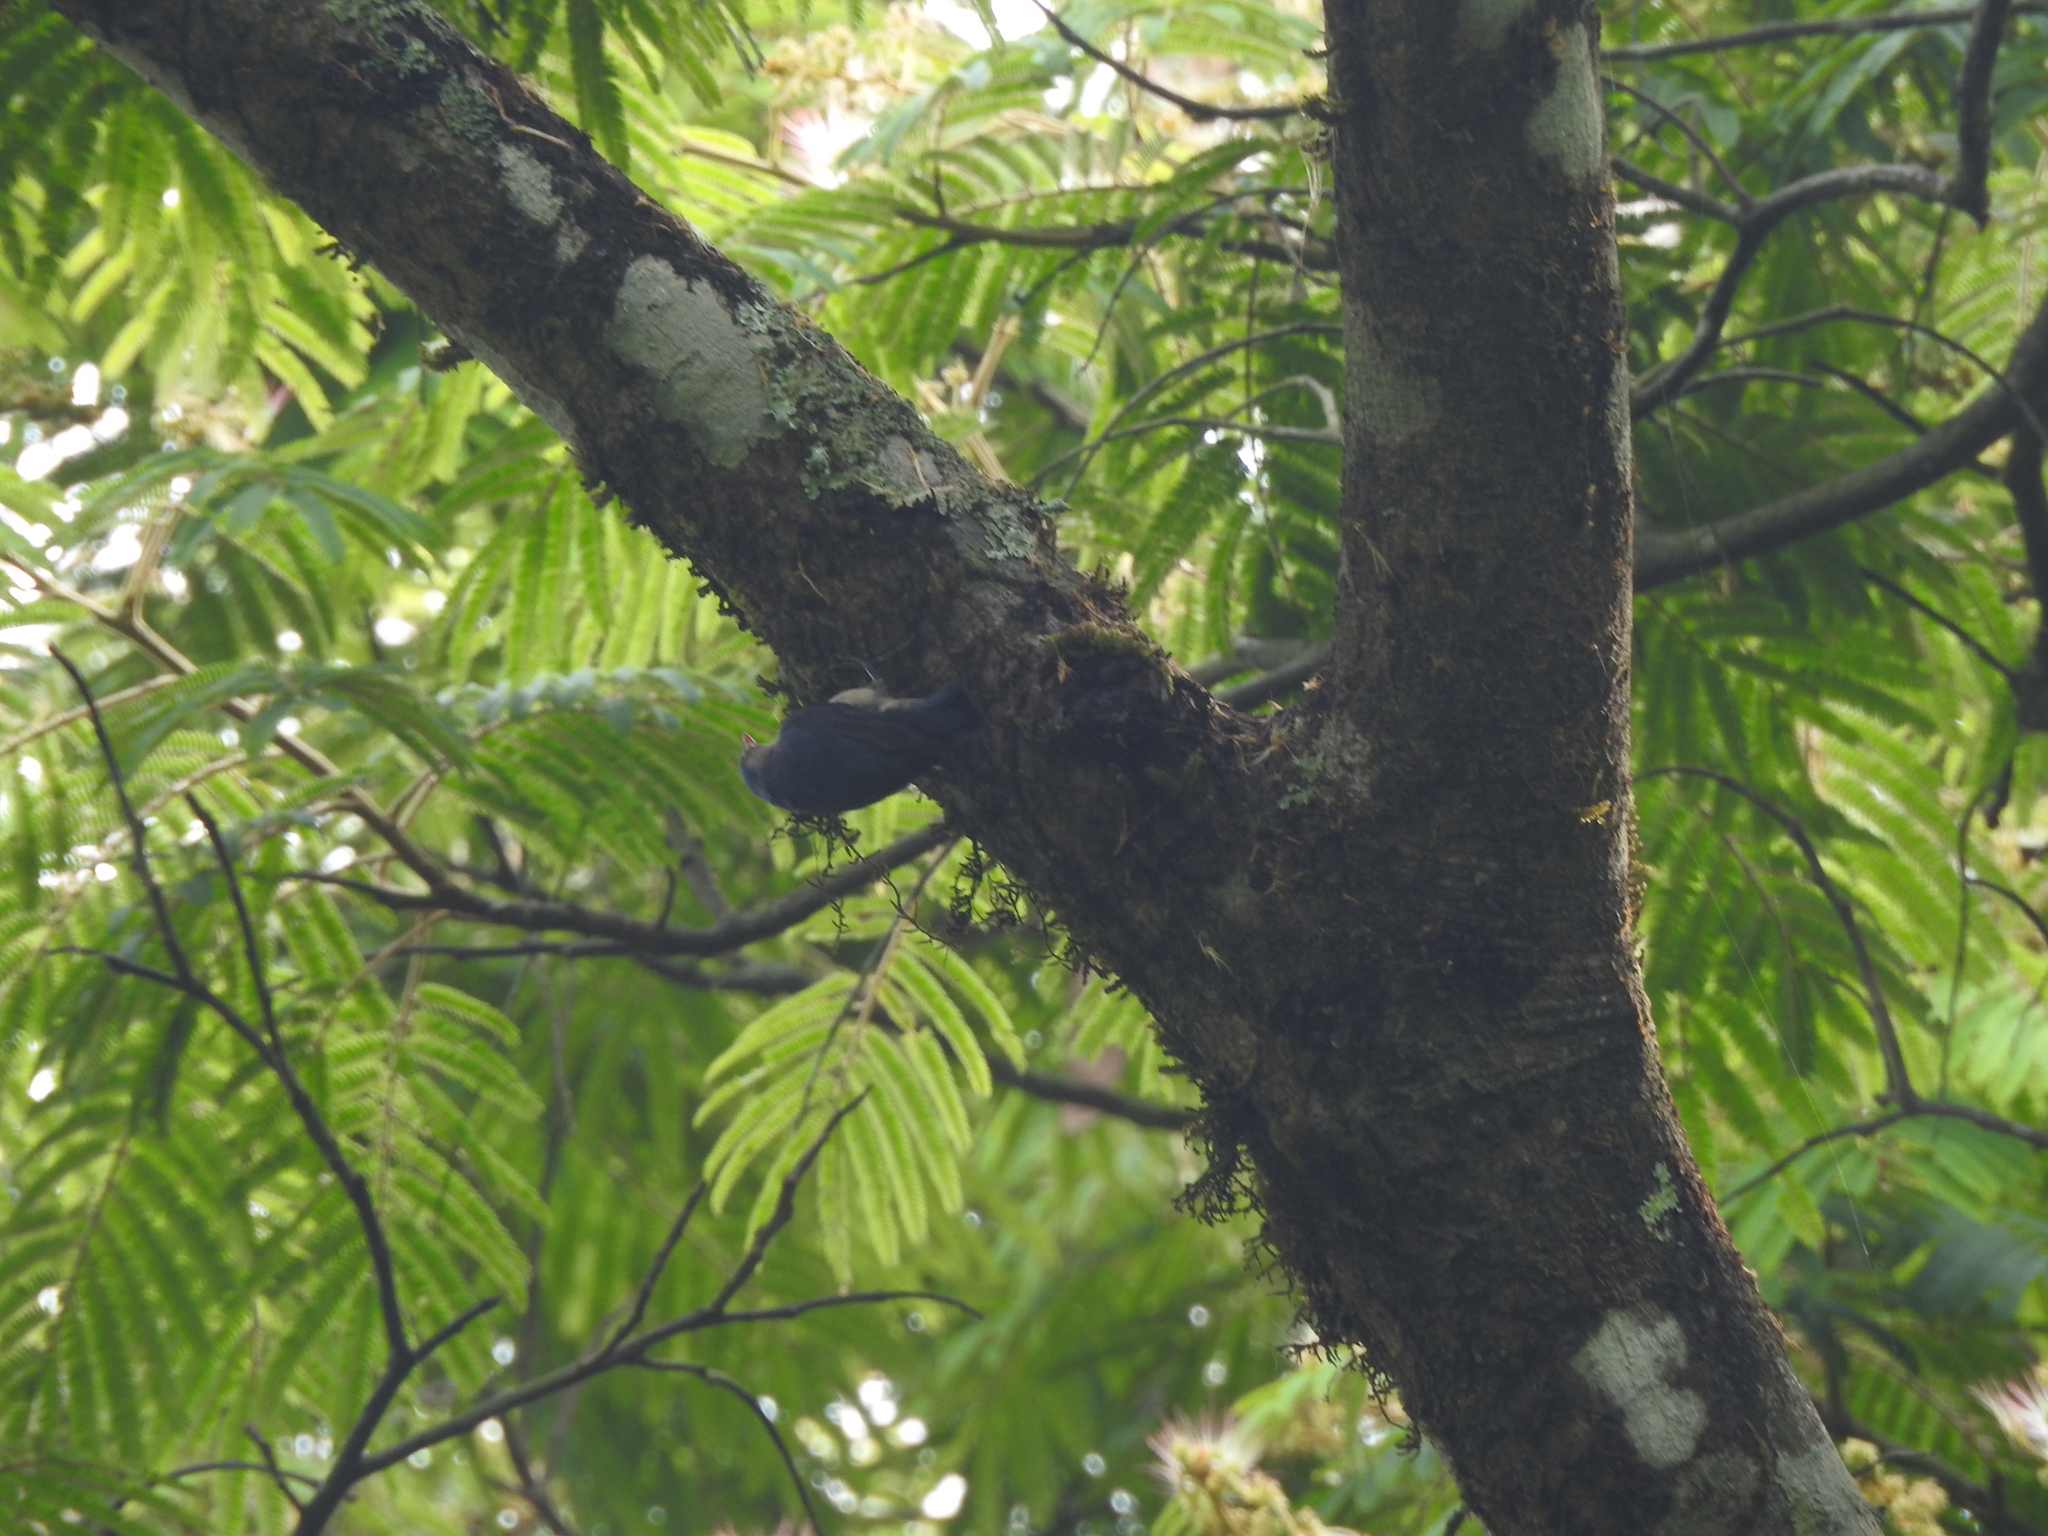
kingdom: Animalia
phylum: Chordata
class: Aves
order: Passeriformes
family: Sittidae
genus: Sitta
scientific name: Sitta frontalis
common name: Velvet-fronted nuthatch
